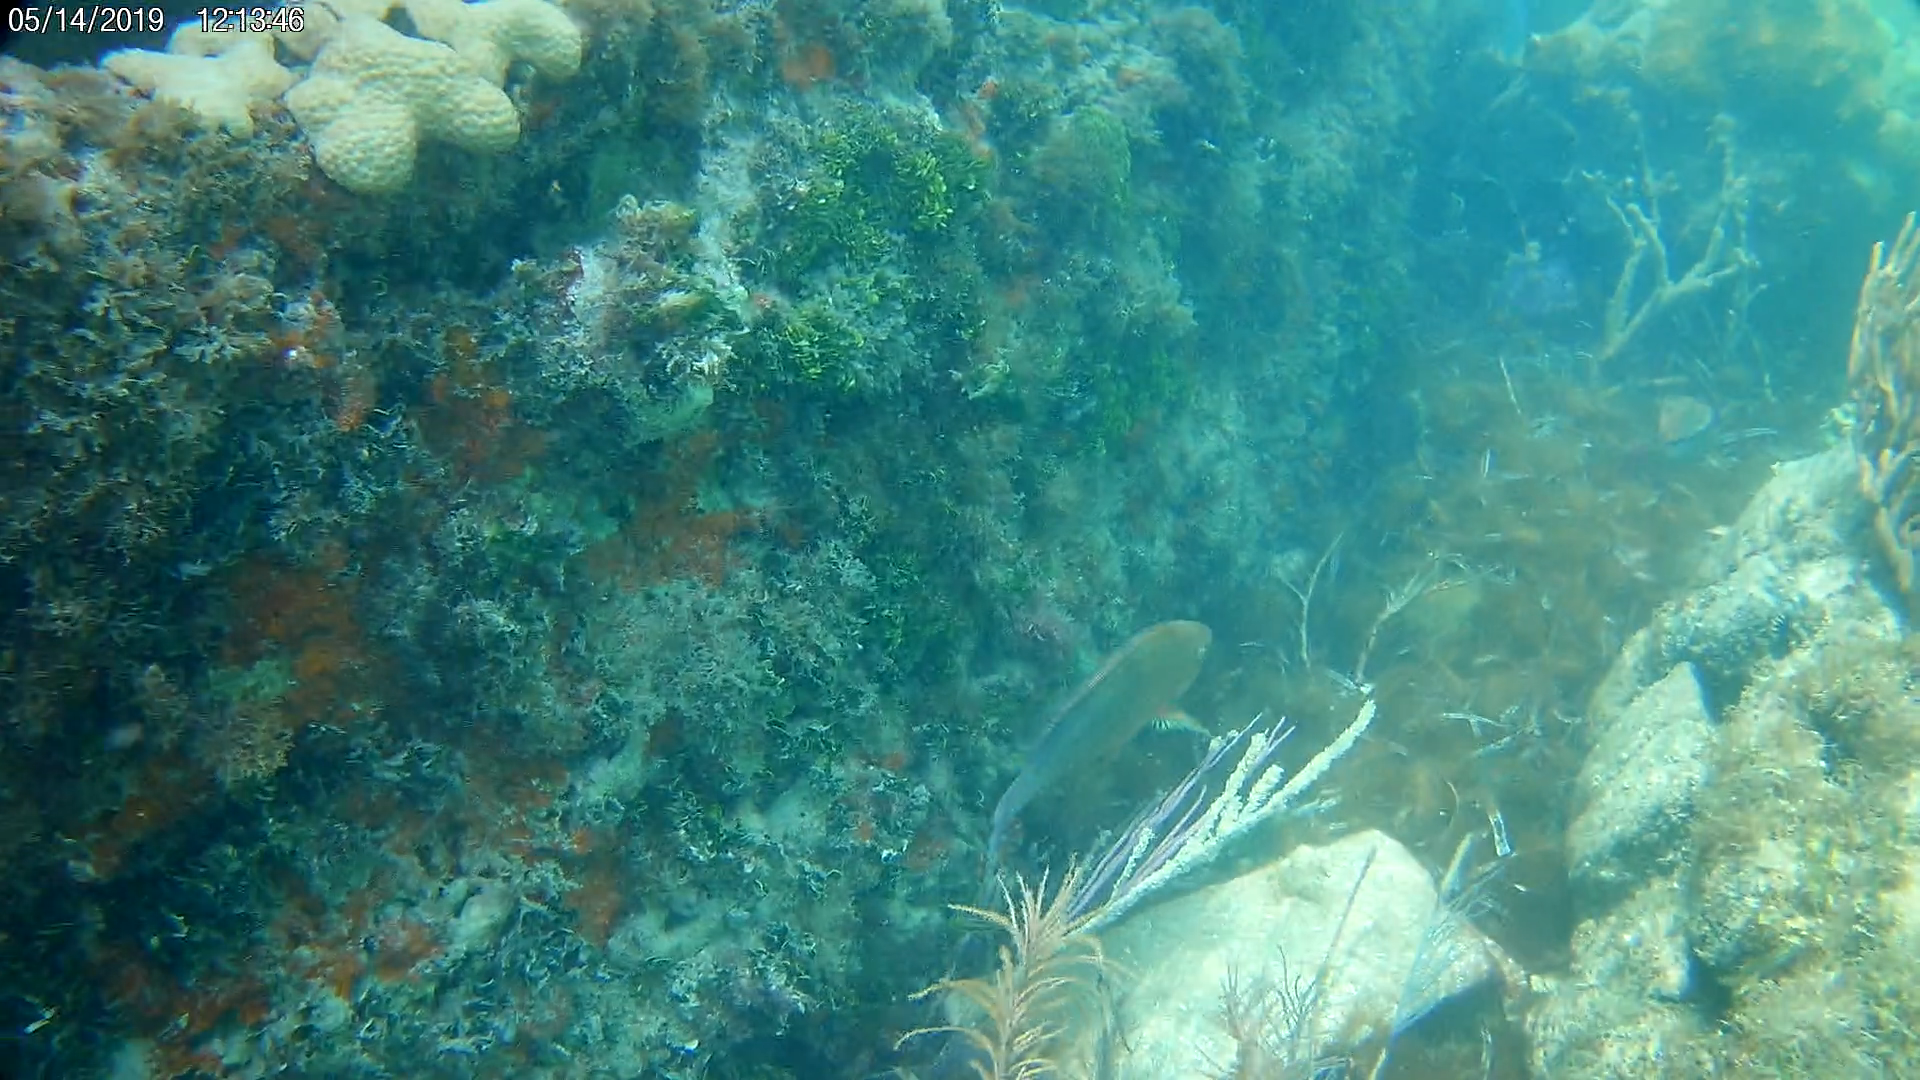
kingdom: Animalia
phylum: Chordata
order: Perciformes
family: Scaridae
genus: Scarus
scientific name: Scarus guacamaia
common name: Rainbow parrotfish
